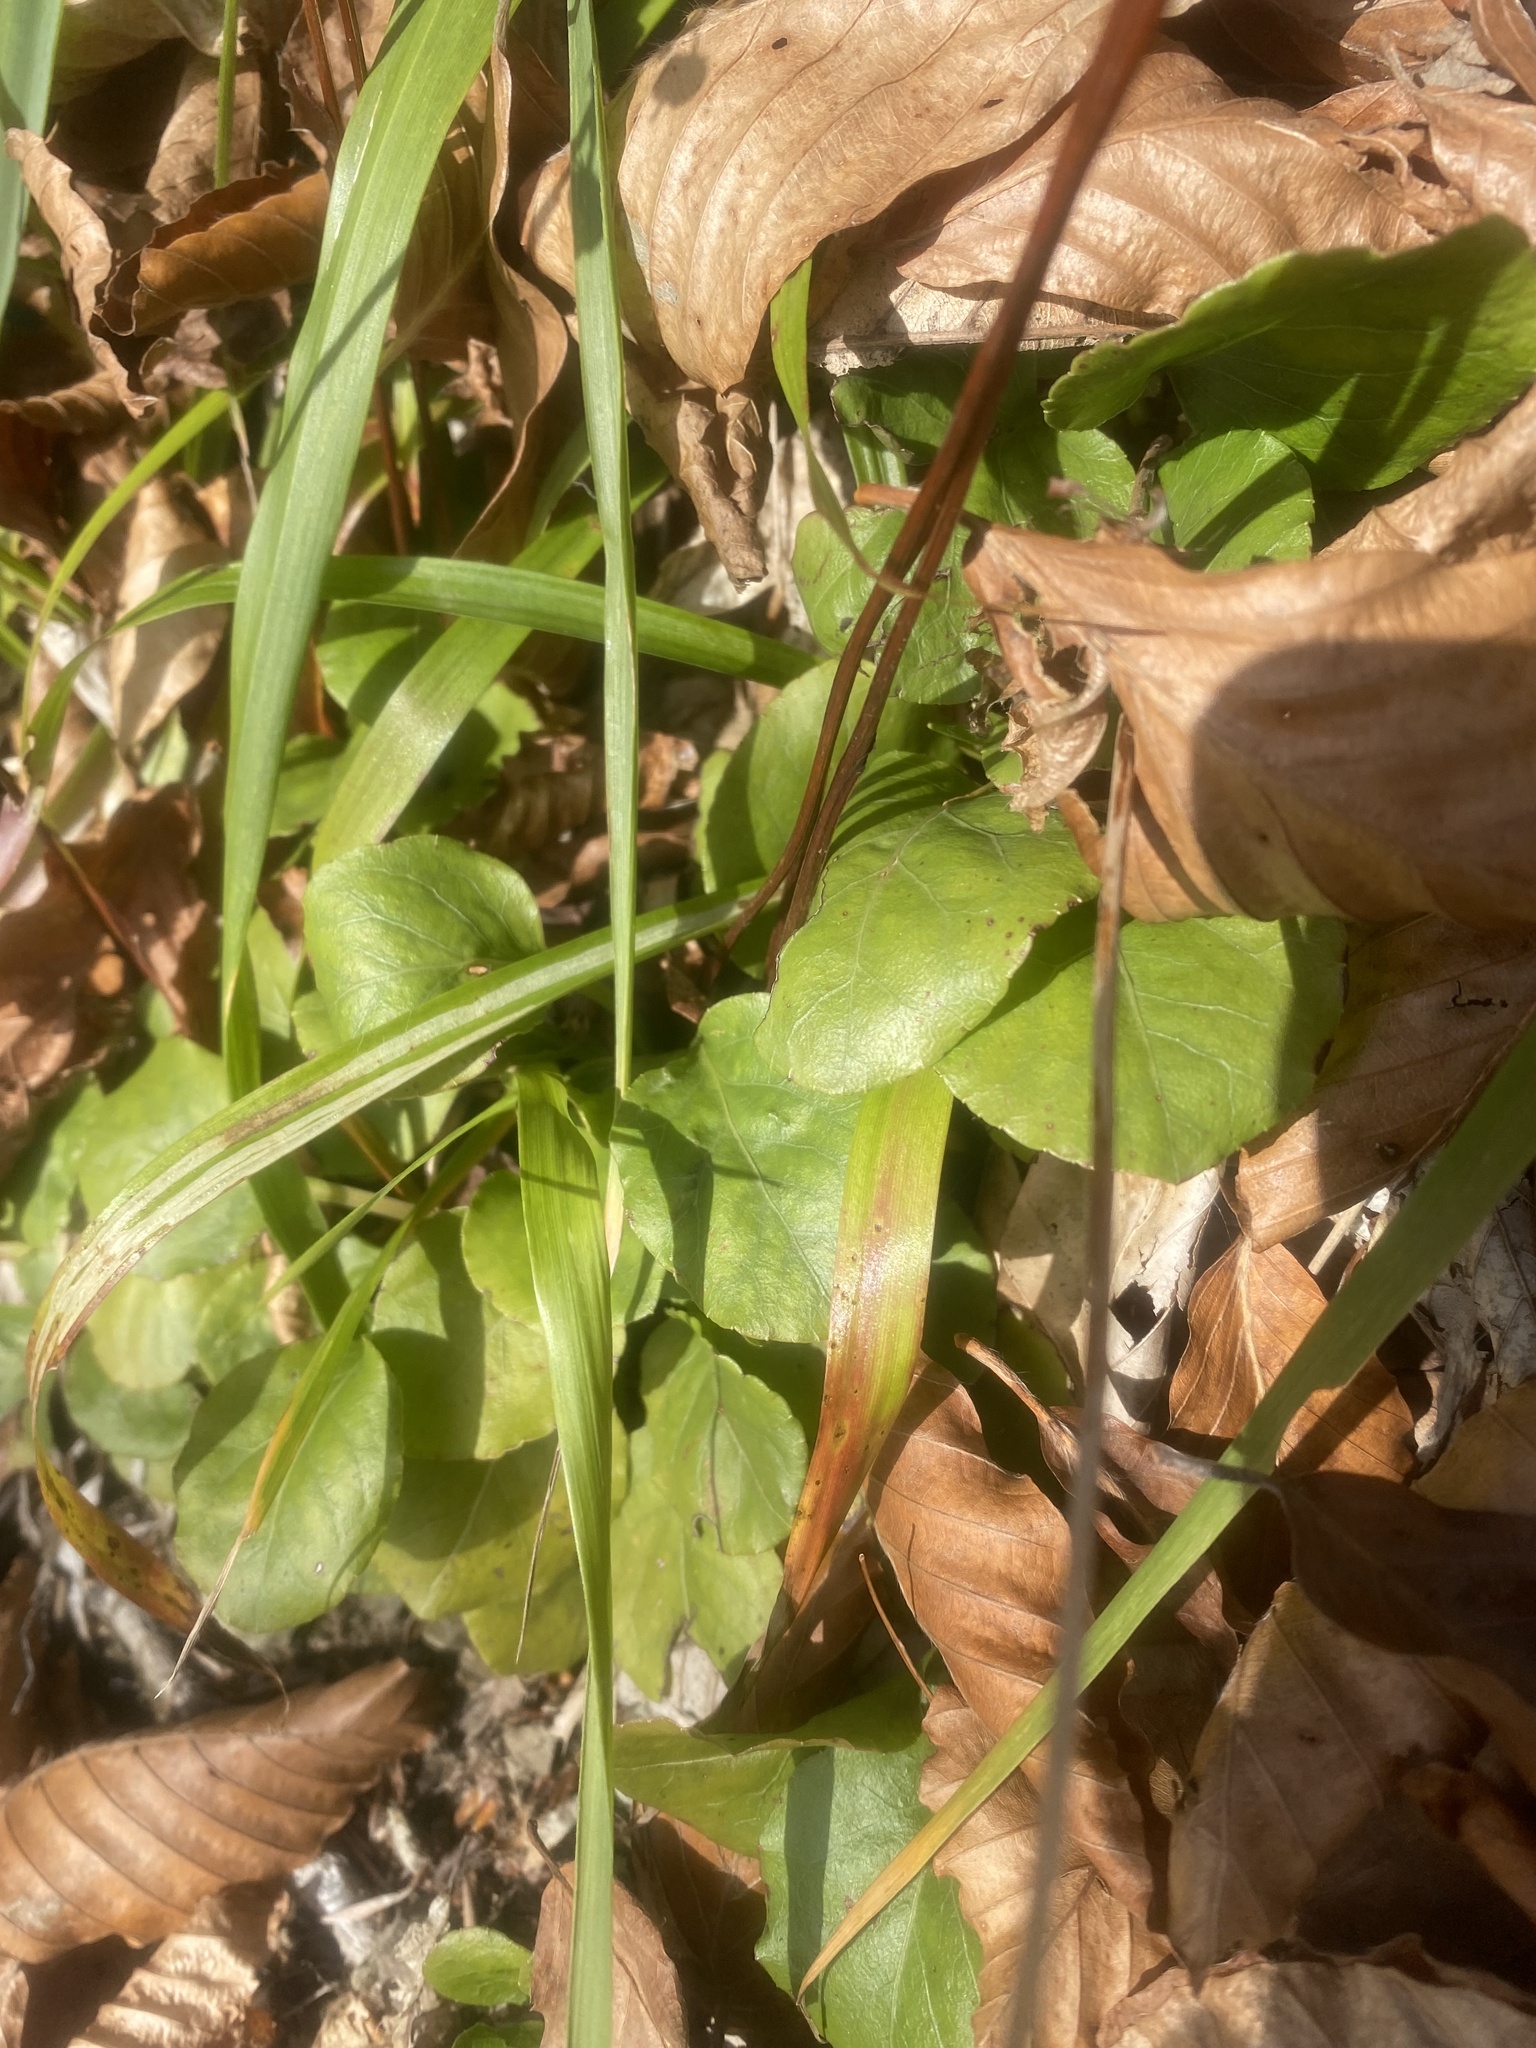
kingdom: Plantae
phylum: Tracheophyta
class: Magnoliopsida
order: Ericales
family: Ericaceae
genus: Pyrola
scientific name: Pyrola media
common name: Intermediate wintergreen
